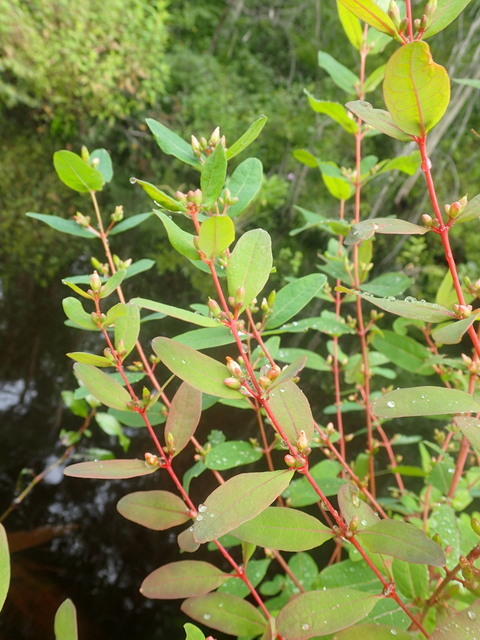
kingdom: Plantae
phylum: Tracheophyta
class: Magnoliopsida
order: Malpighiales
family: Hypericaceae
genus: Triadenum
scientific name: Triadenum walteri
